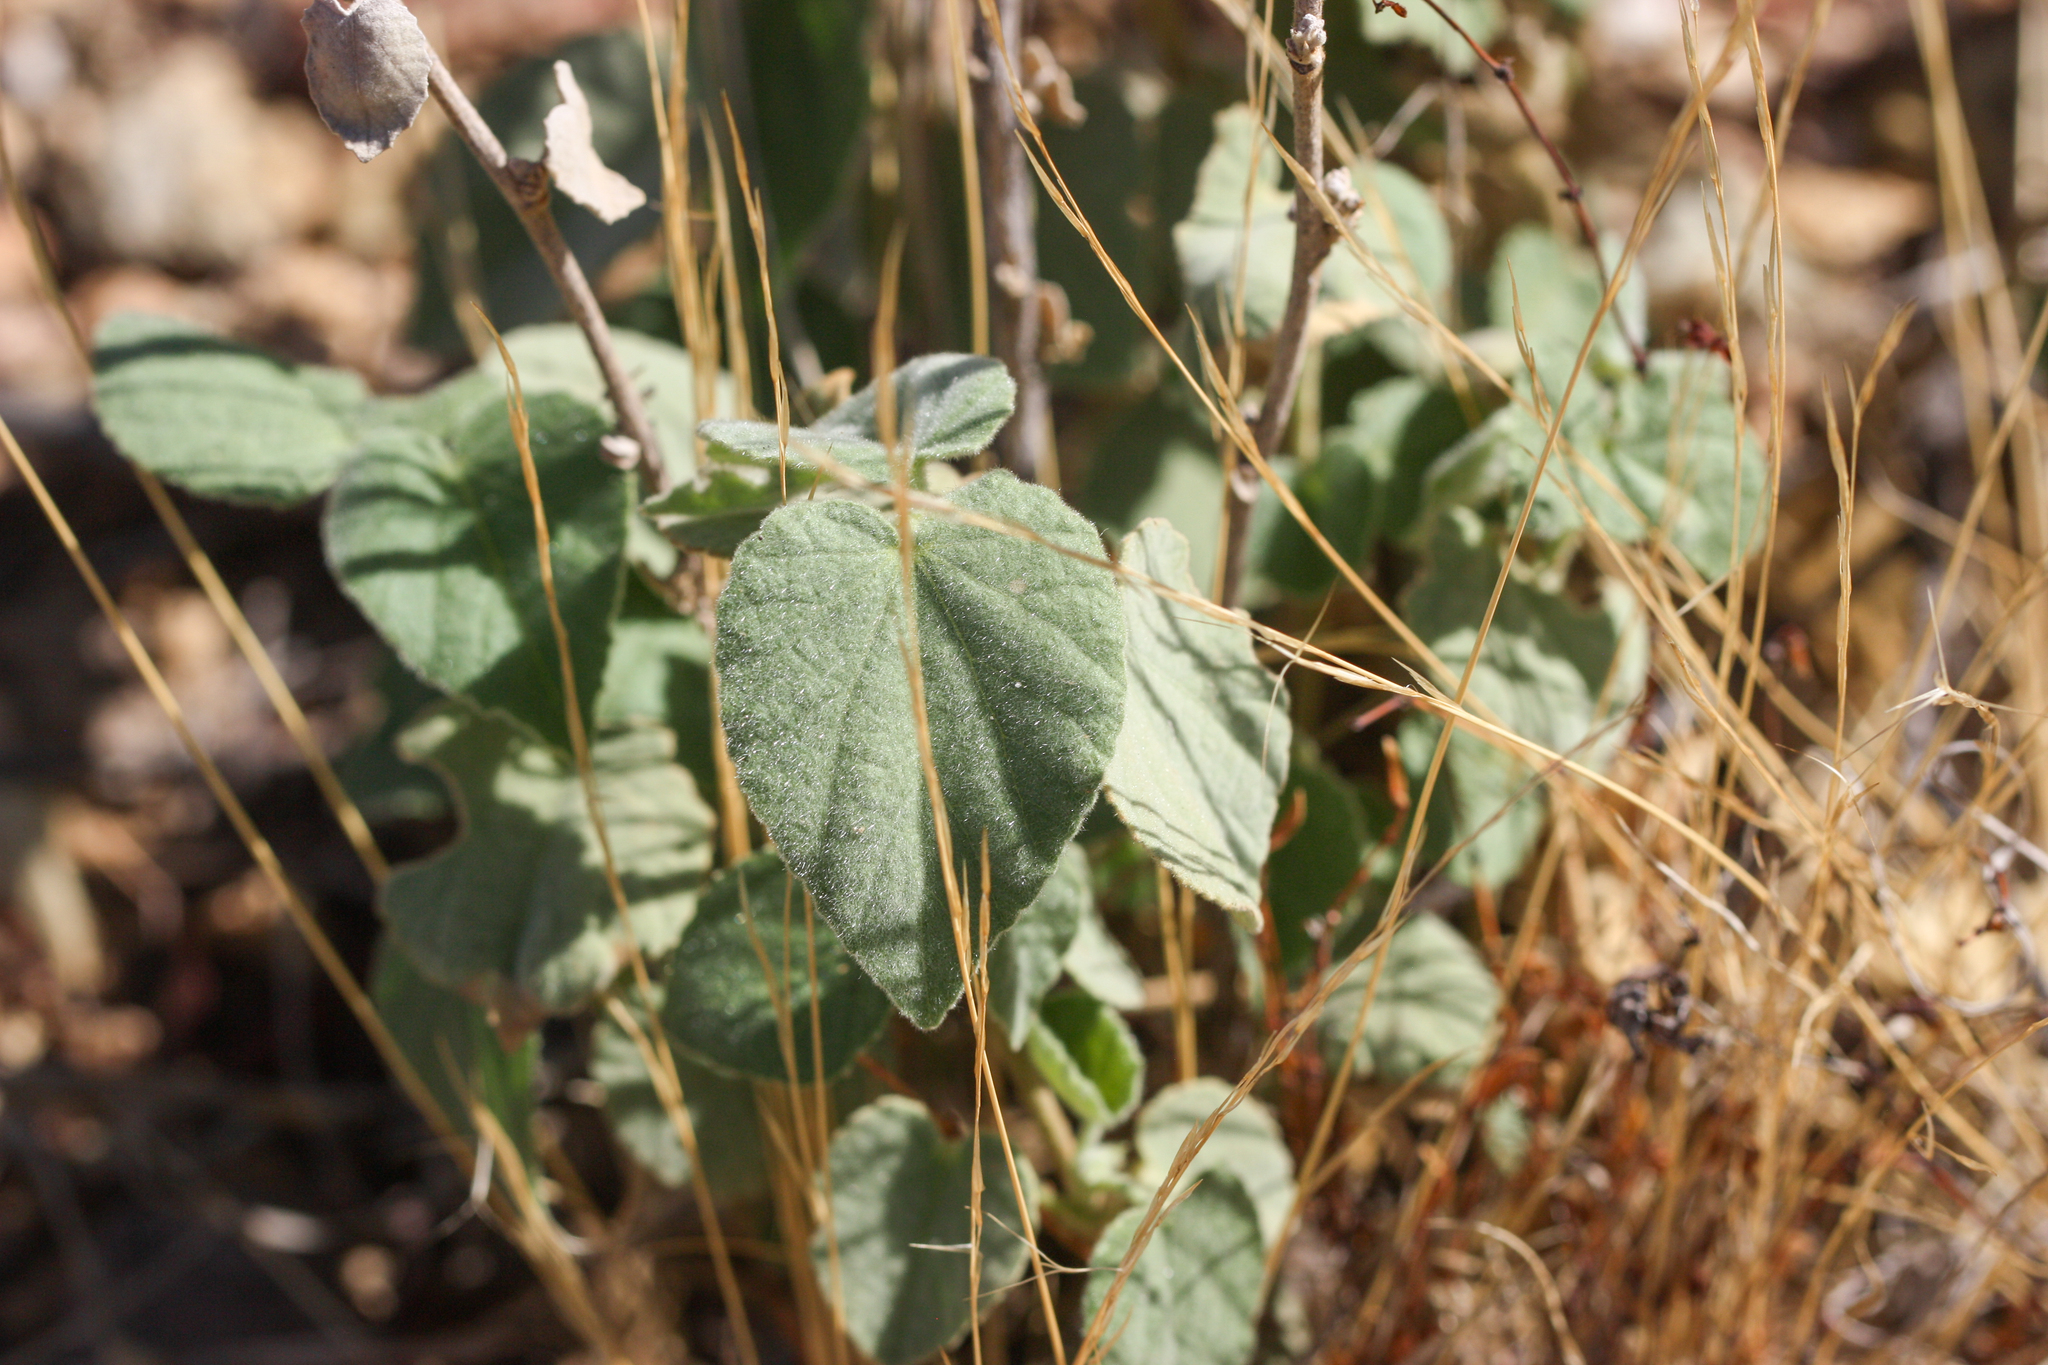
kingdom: Plantae
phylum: Tracheophyta
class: Magnoliopsida
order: Malvales
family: Malvaceae
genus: Abutilon
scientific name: Abutilon abutiloides
